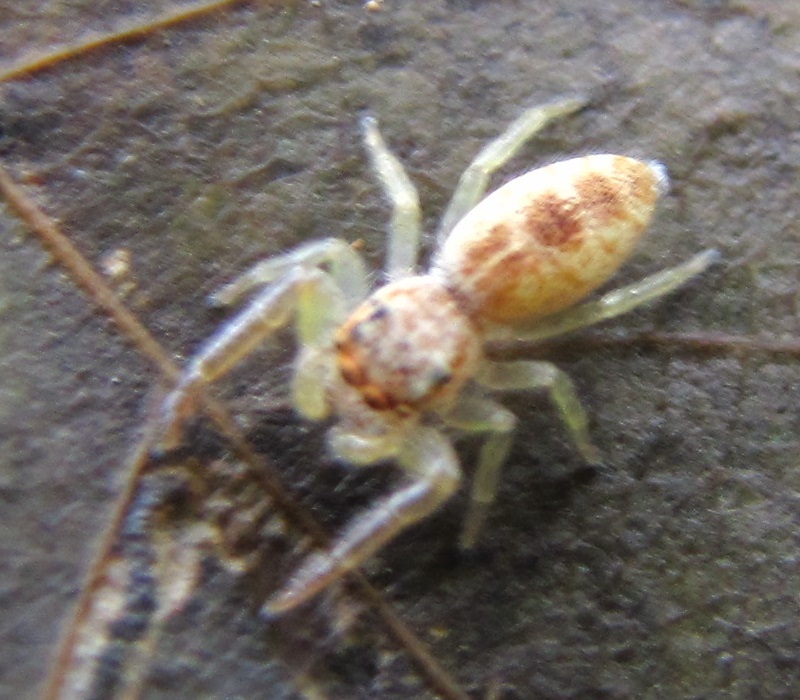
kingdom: Animalia
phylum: Arthropoda
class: Arachnida
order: Araneae
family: Salticidae
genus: Hentzia
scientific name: Hentzia mitrata
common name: White-jawed jumping spider
